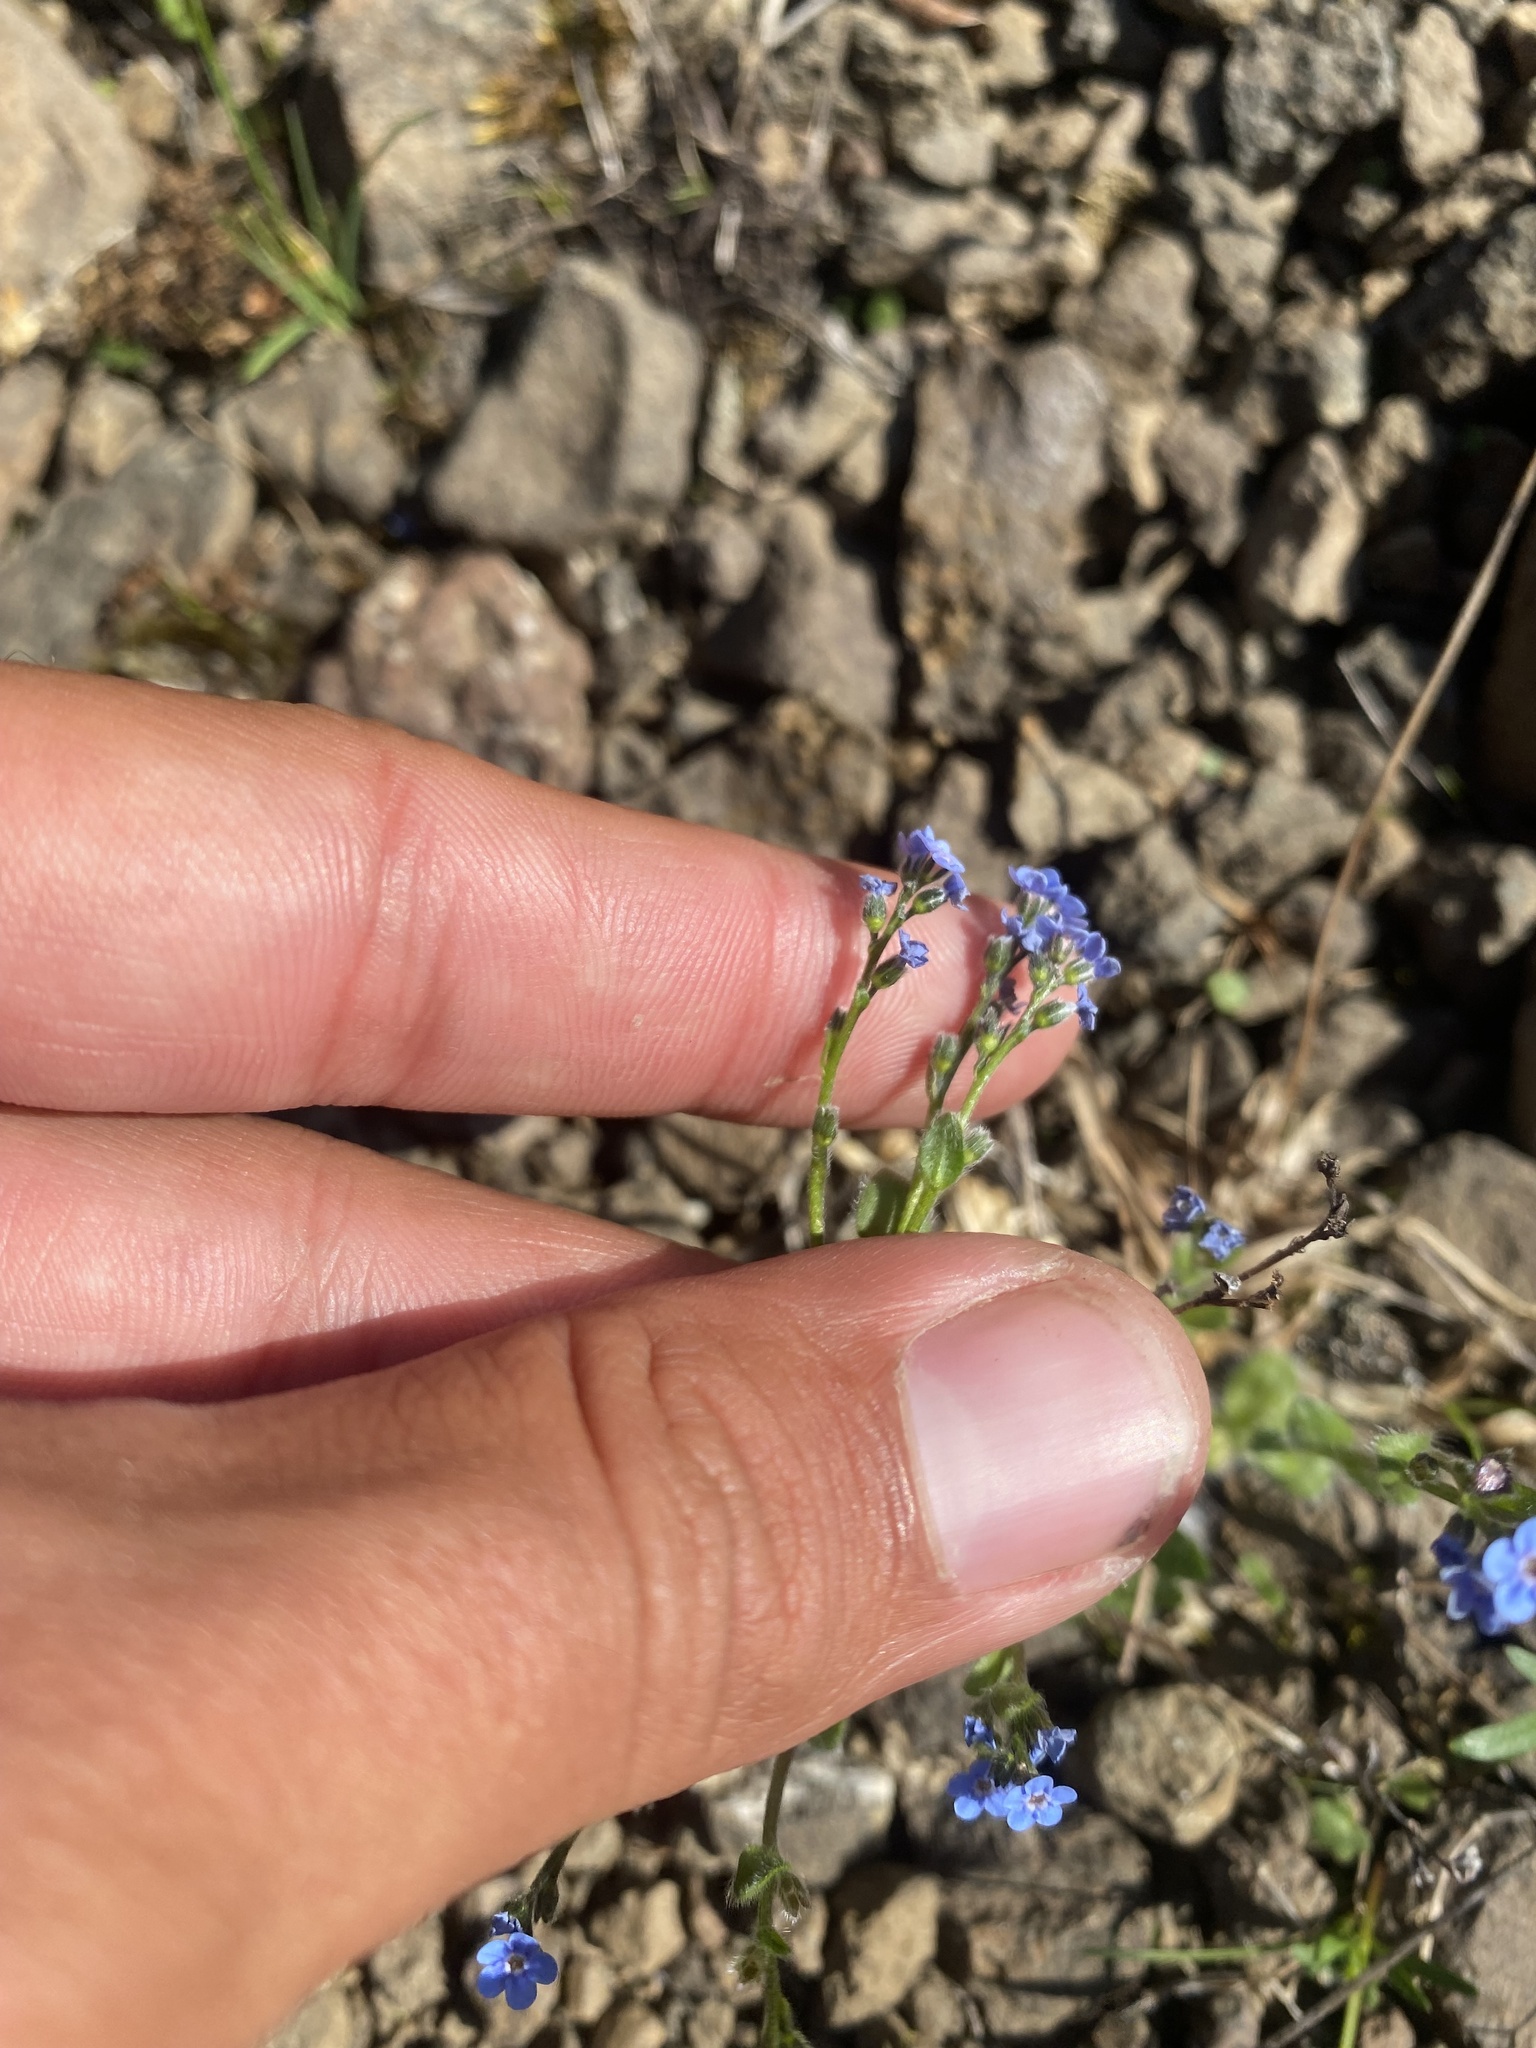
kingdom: Plantae
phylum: Tracheophyta
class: Magnoliopsida
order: Boraginales
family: Boraginaceae
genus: Eritrichium
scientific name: Eritrichium villosum
